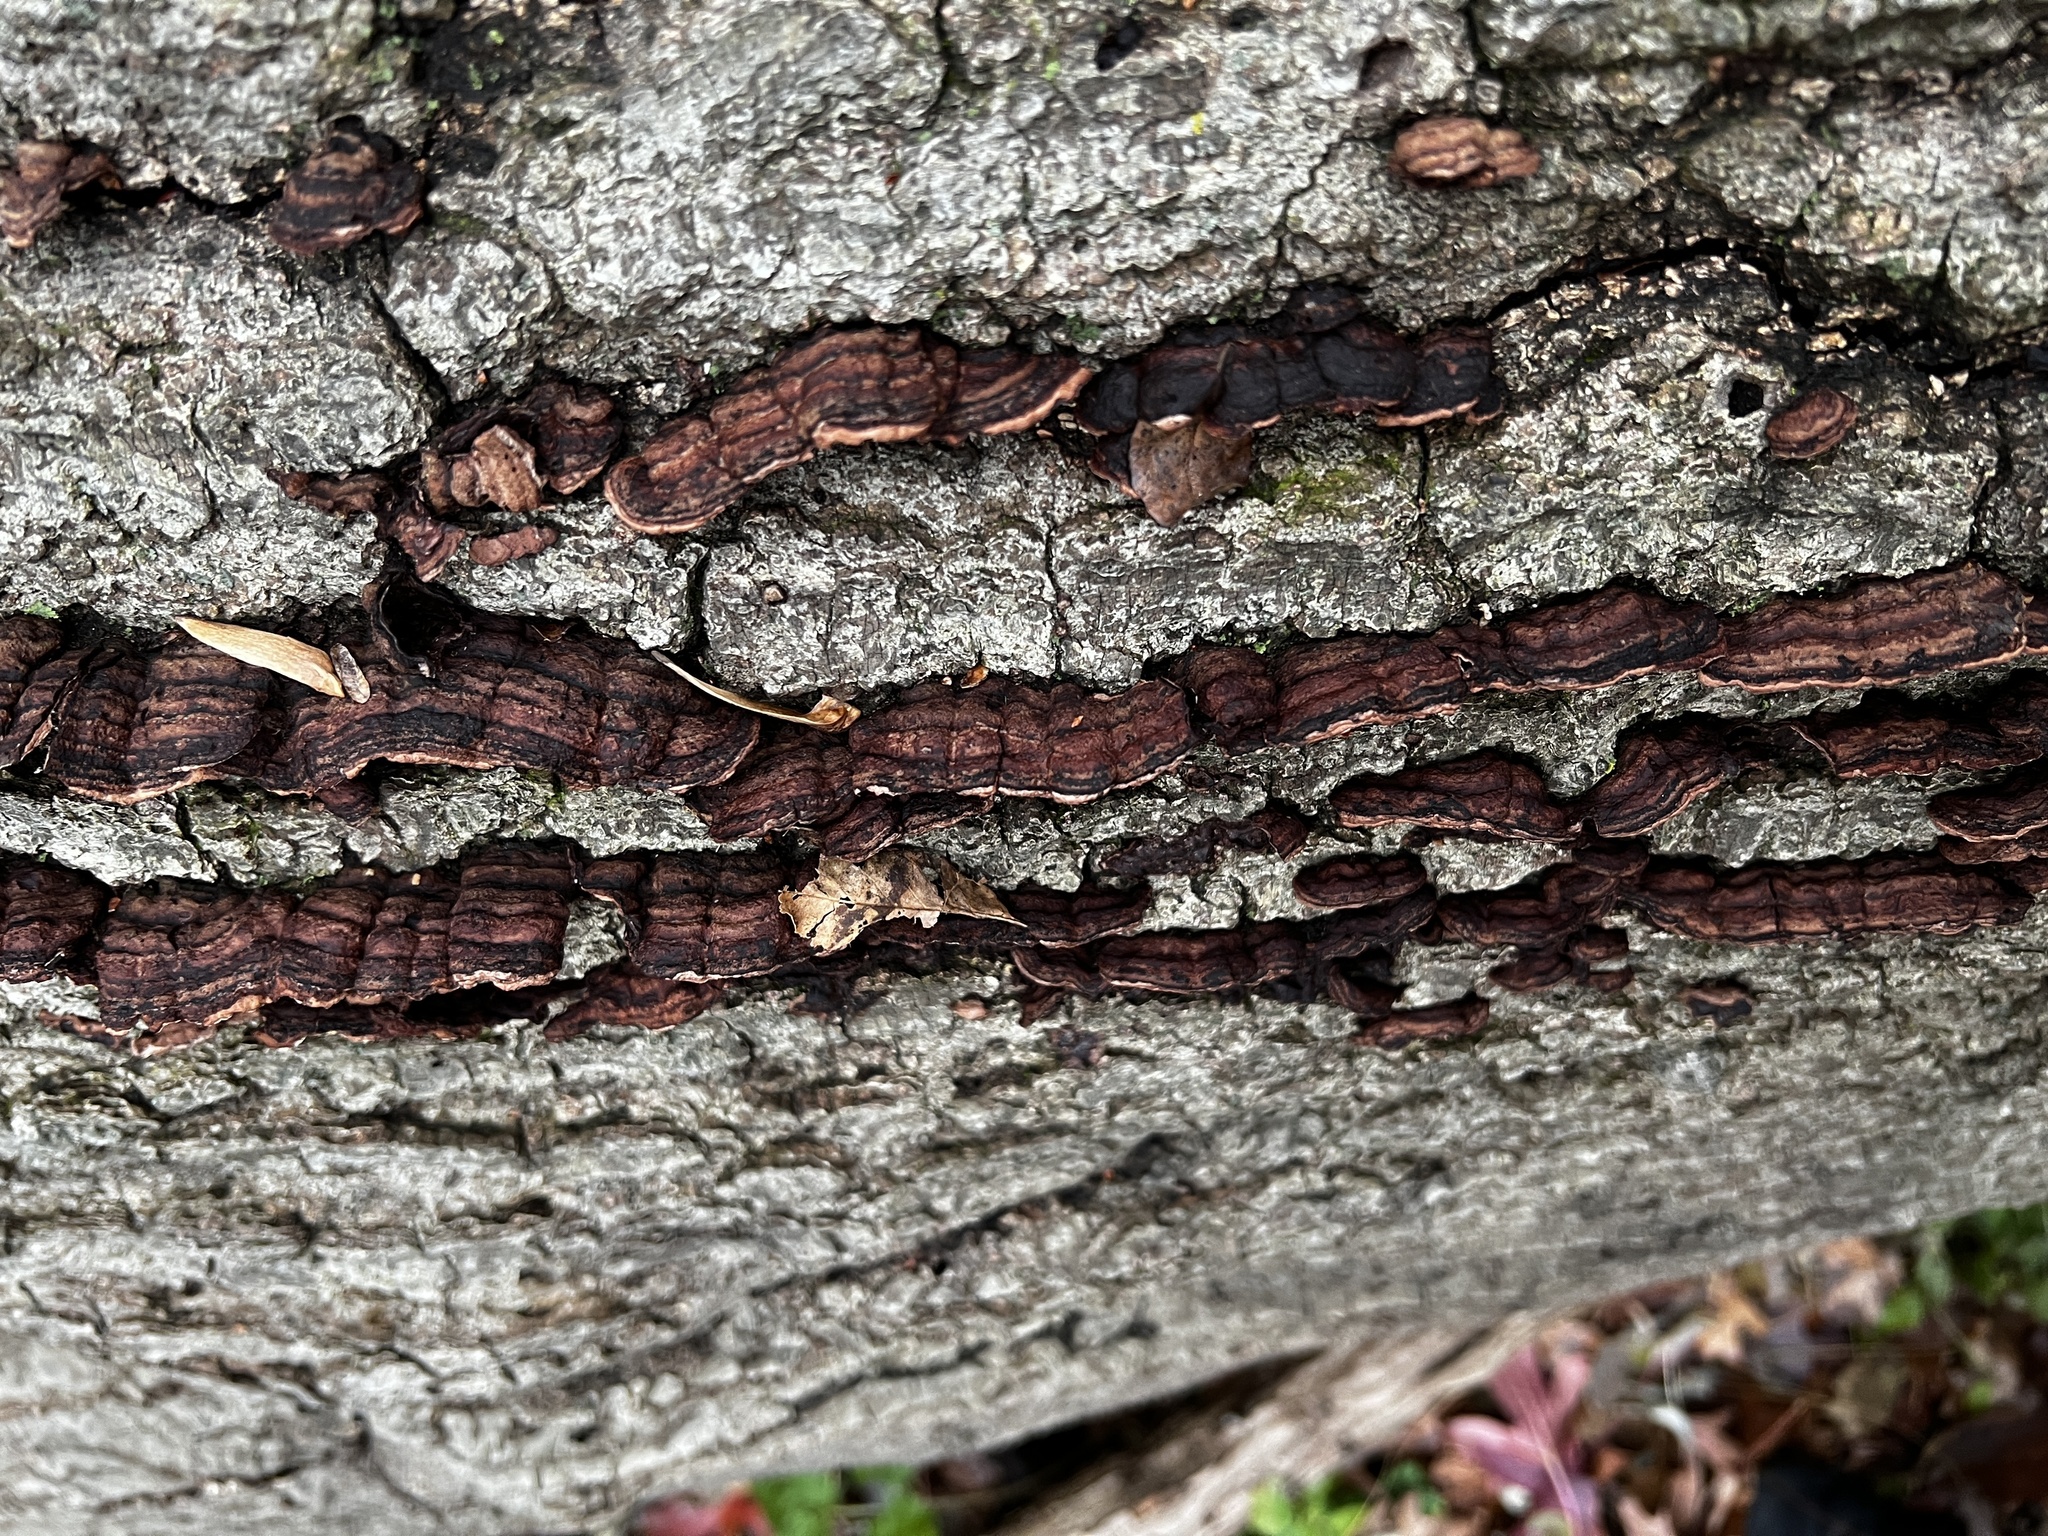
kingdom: Fungi
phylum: Basidiomycota
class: Agaricomycetes
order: Corticiales
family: Punctulariaceae
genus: Punctularia
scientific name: Punctularia strigosozonata
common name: White-rot fungus
